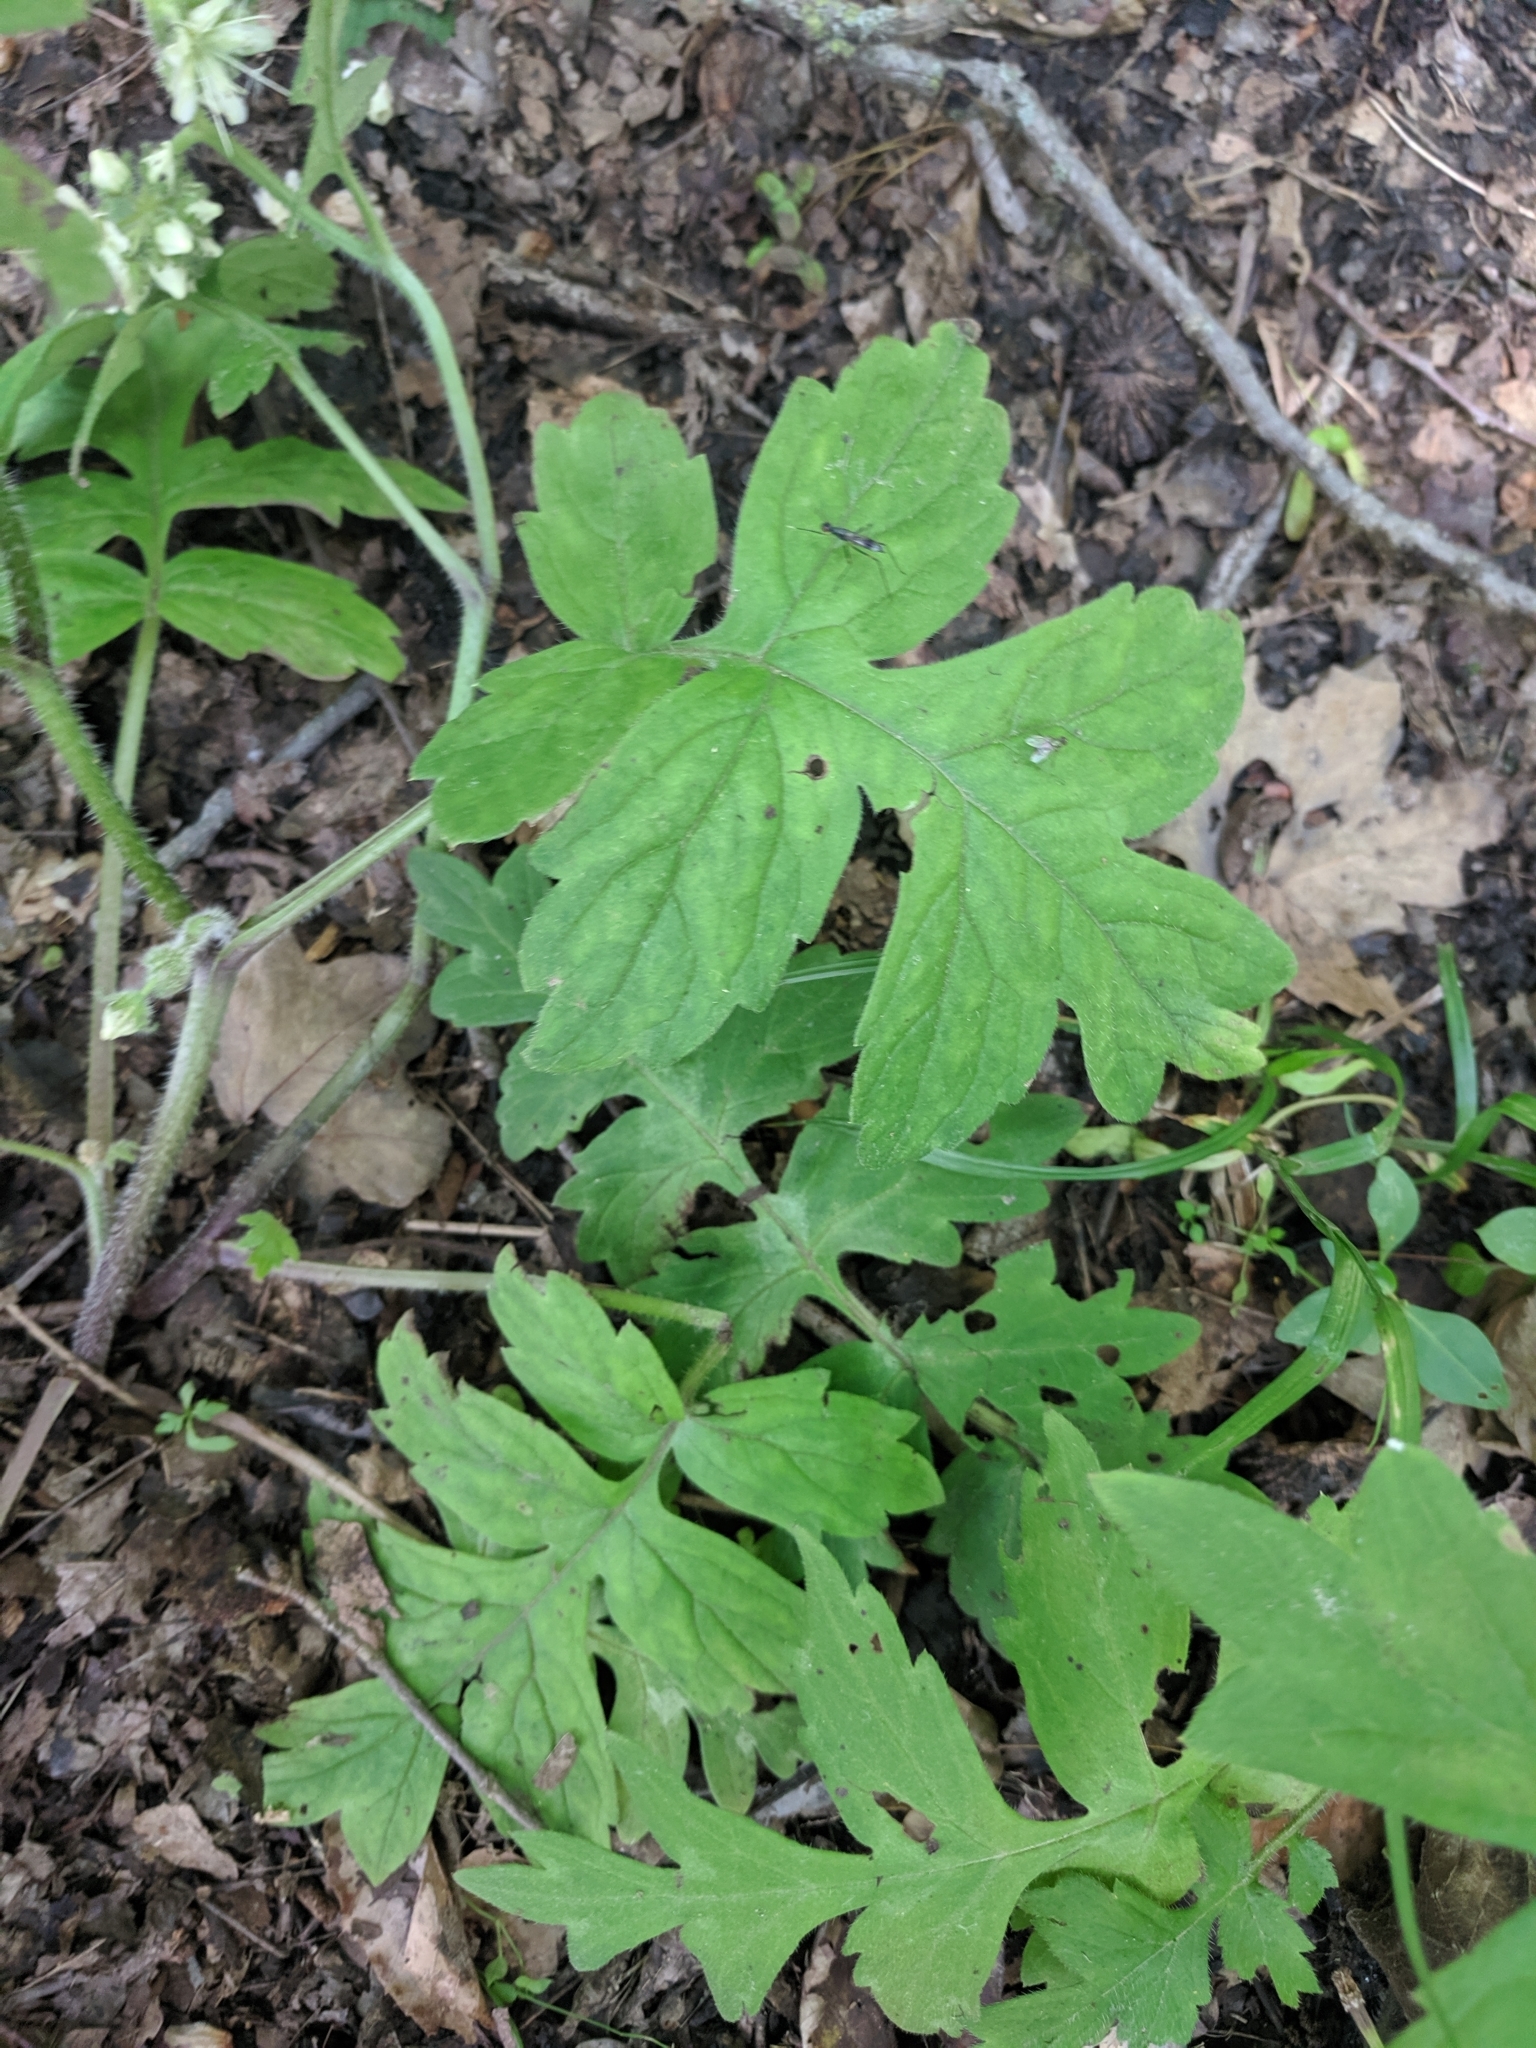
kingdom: Plantae
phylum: Tracheophyta
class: Magnoliopsida
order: Boraginales
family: Hydrophyllaceae
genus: Hydrophyllum
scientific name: Hydrophyllum macrophyllum
